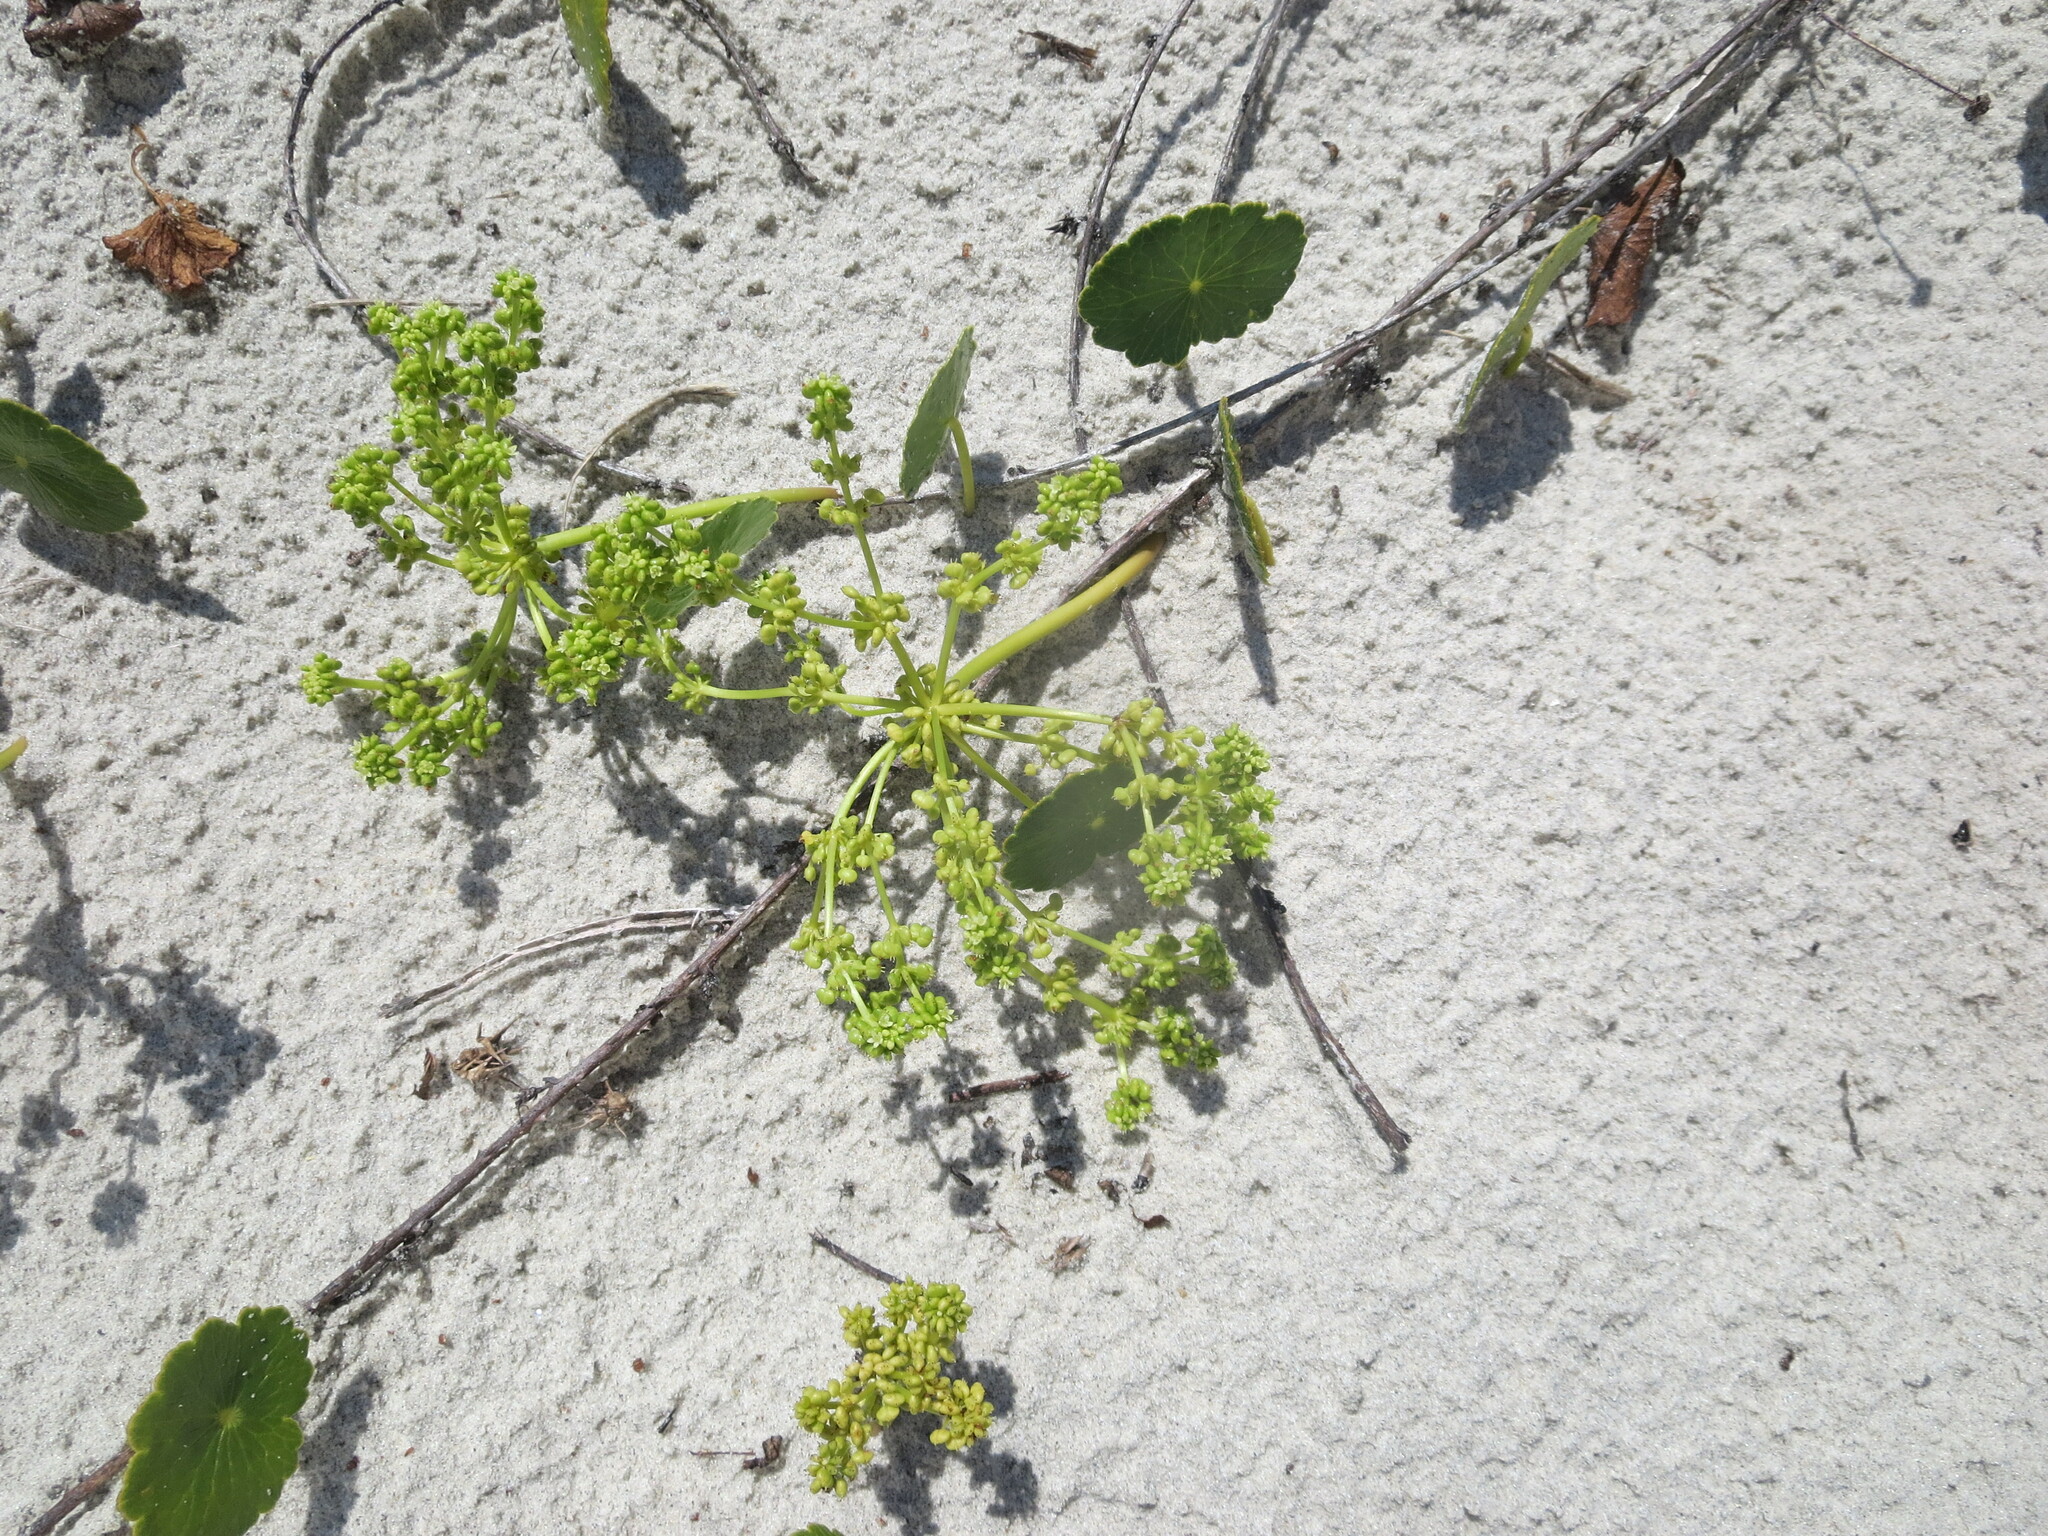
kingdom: Plantae
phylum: Tracheophyta
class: Magnoliopsida
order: Apiales
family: Araliaceae
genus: Hydrocotyle
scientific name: Hydrocotyle bonariensis
